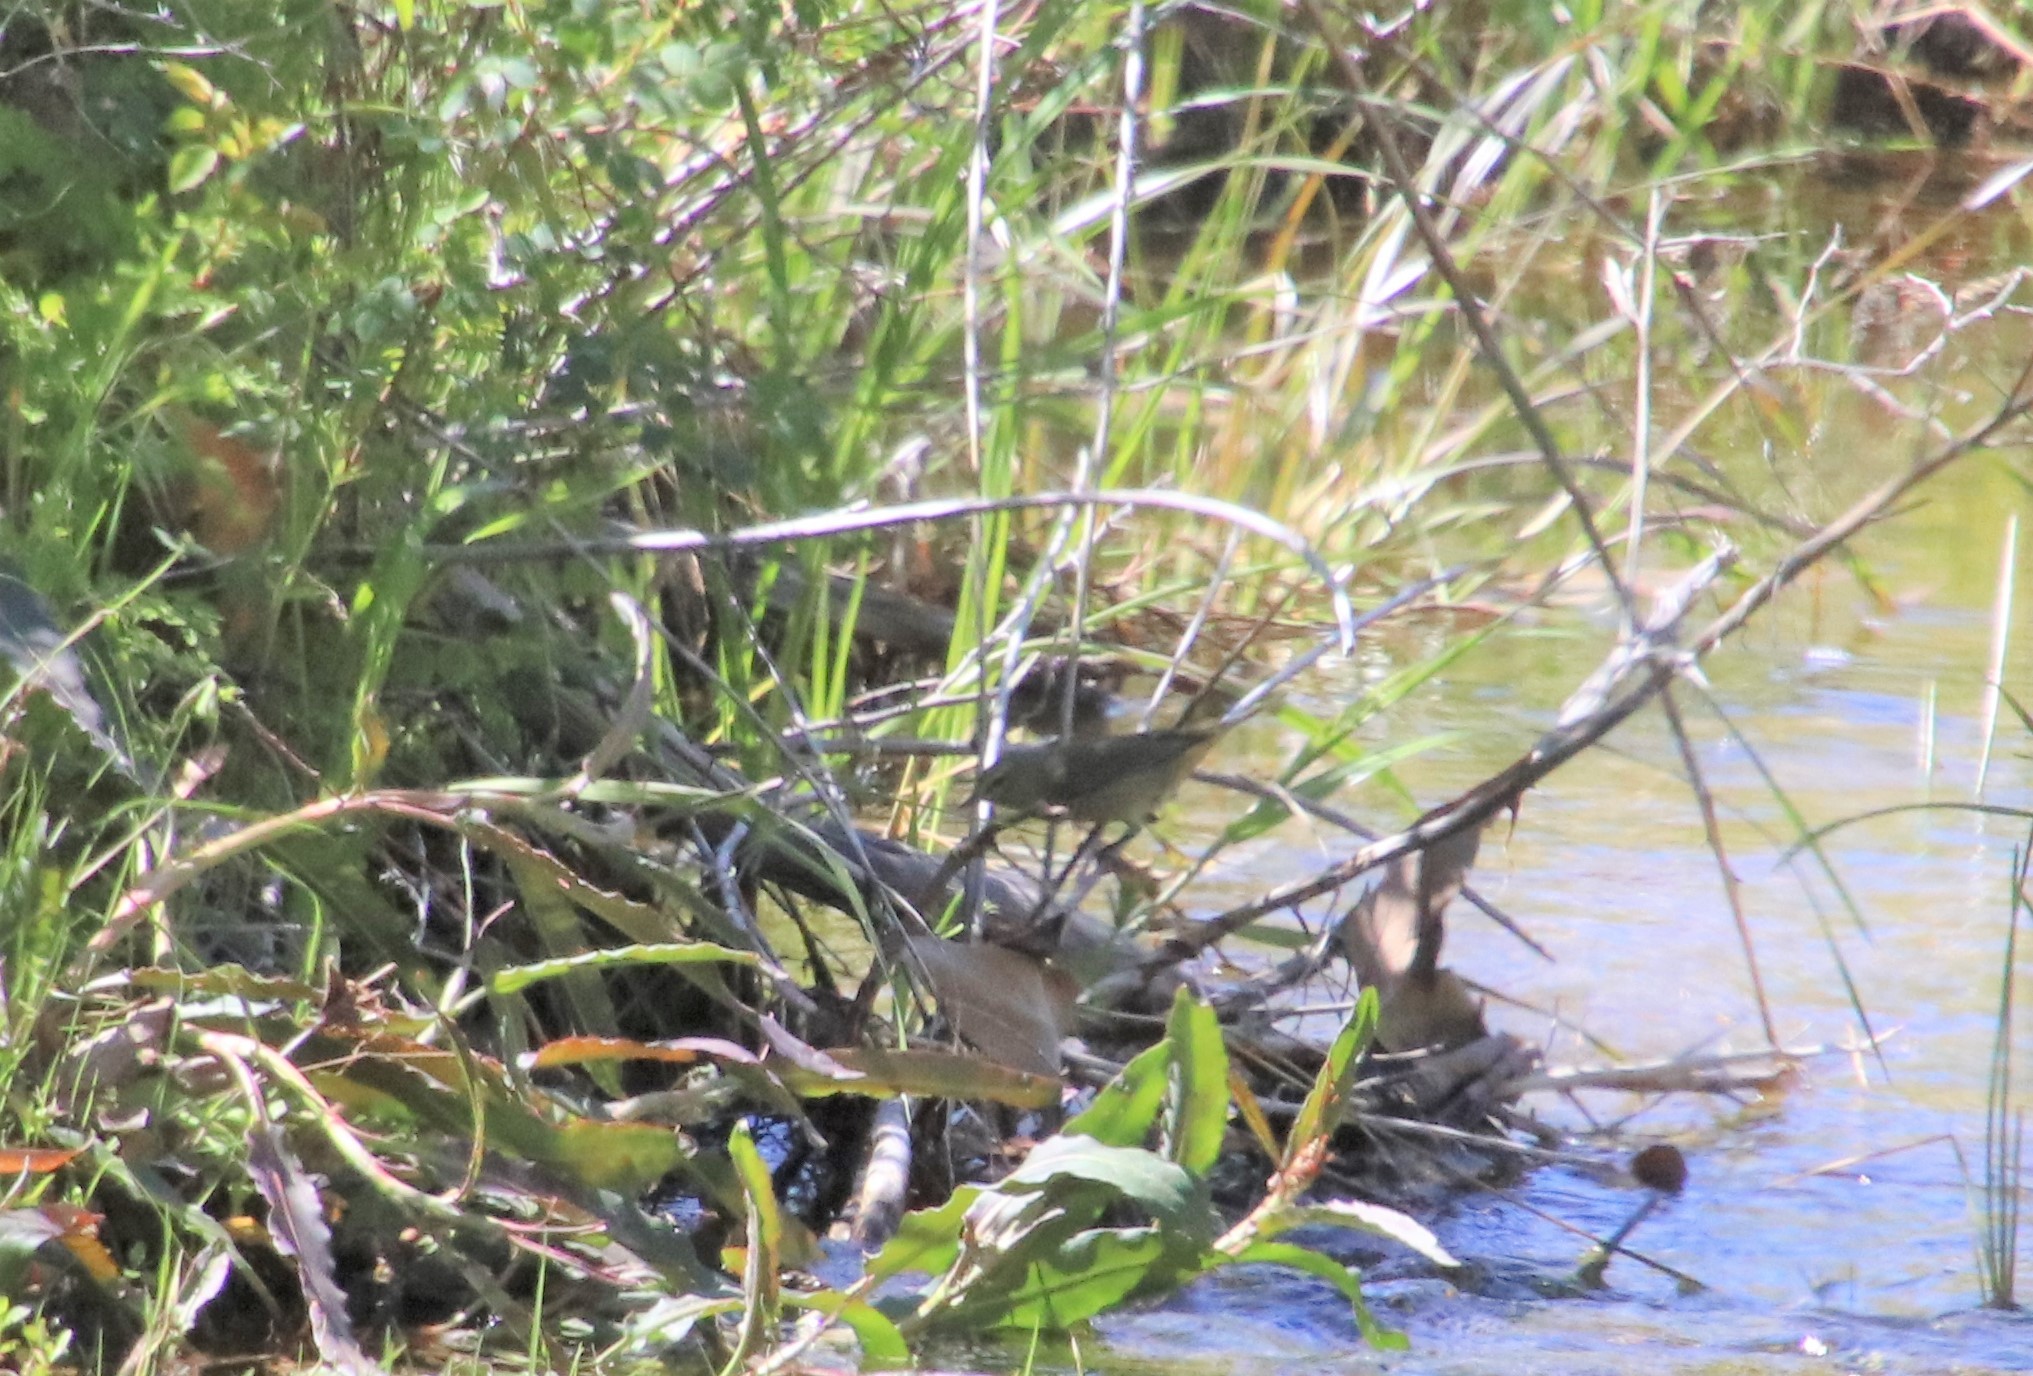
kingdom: Animalia
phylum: Chordata
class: Aves
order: Passeriformes
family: Parulidae
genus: Leiothlypis
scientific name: Leiothlypis celata
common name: Orange-crowned warbler
